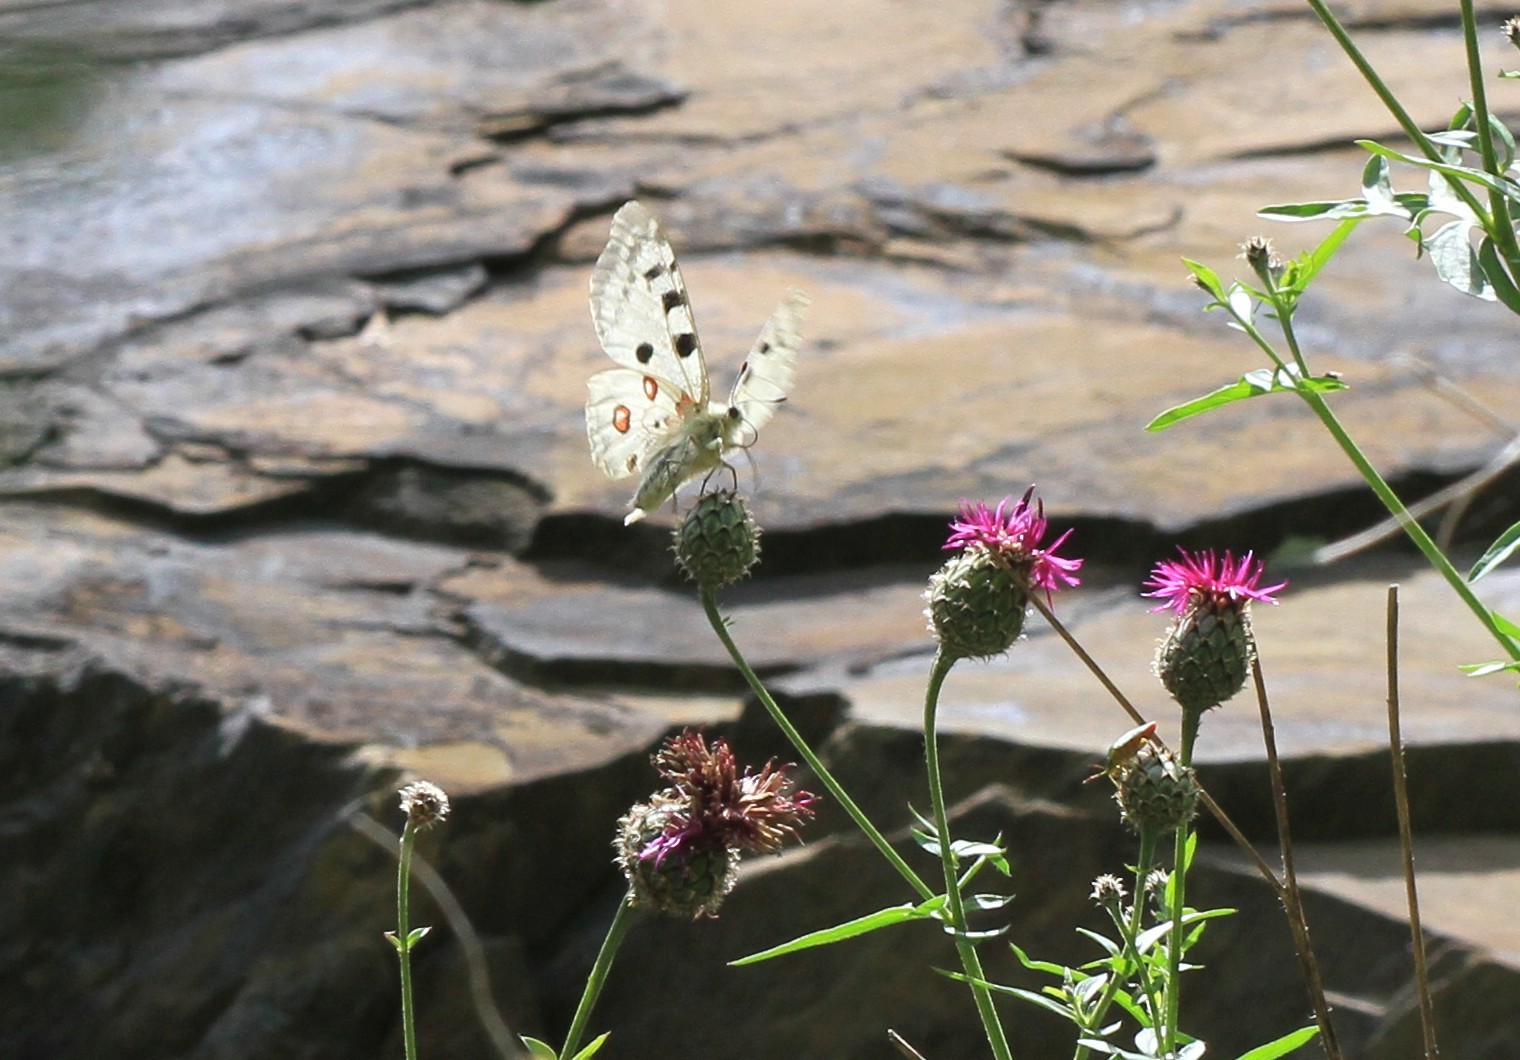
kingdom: Animalia
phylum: Arthropoda
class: Insecta
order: Lepidoptera
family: Papilionidae
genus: Parnassius
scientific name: Parnassius apollo
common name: Apollo
